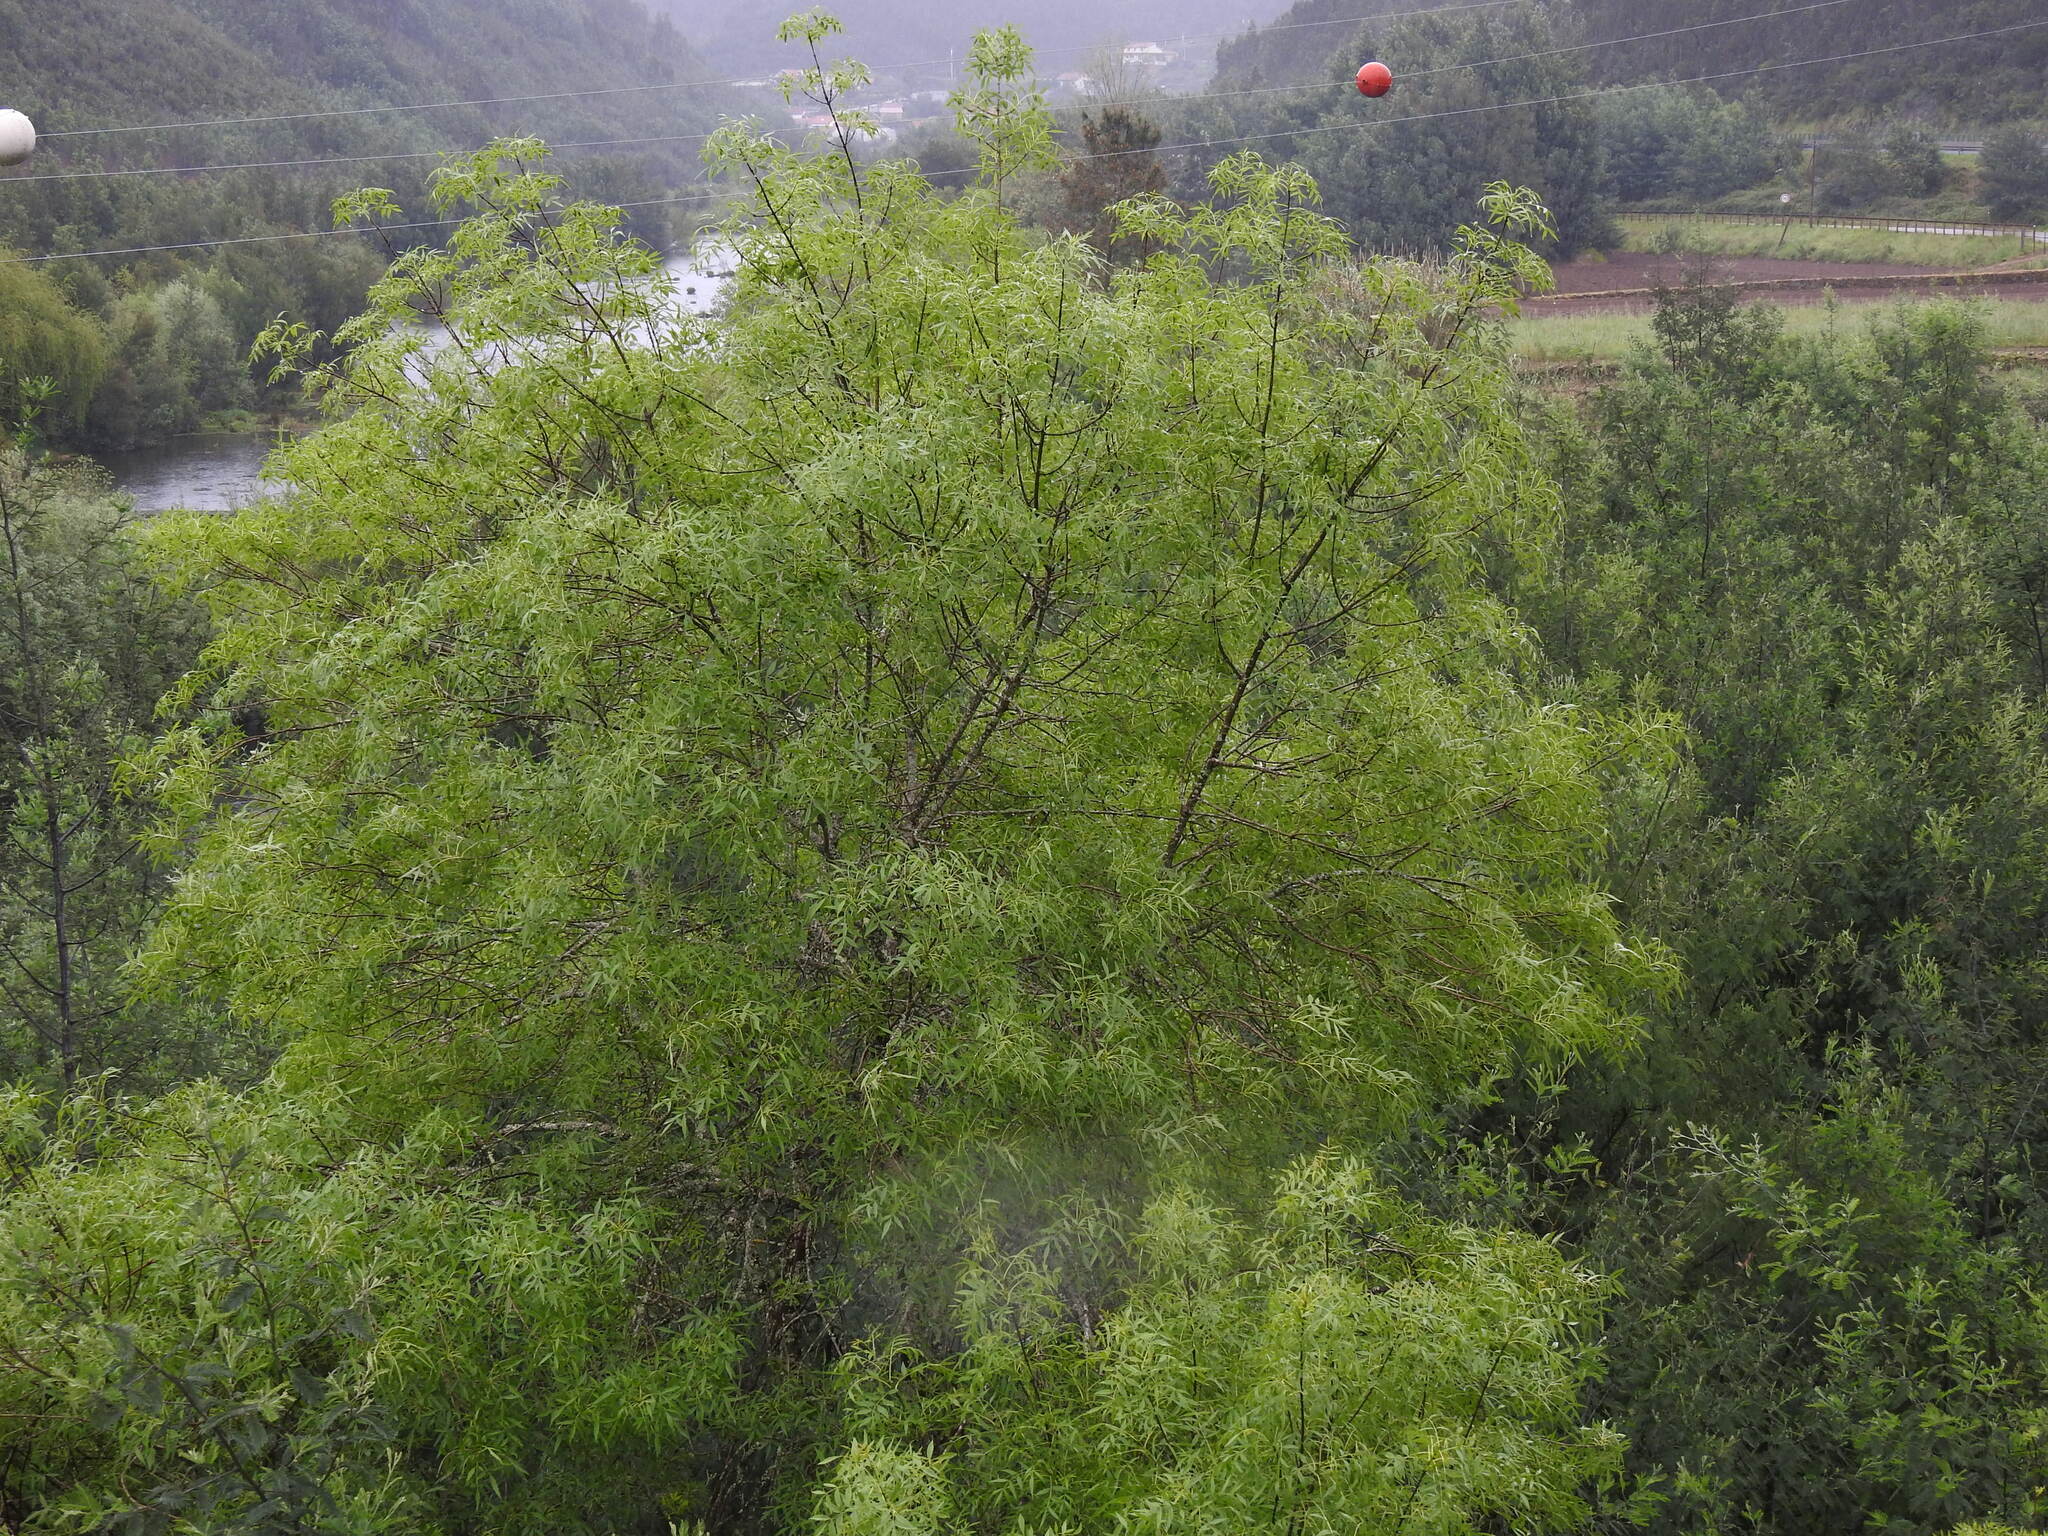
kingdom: Plantae
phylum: Tracheophyta
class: Magnoliopsida
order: Lamiales
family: Oleaceae
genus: Fraxinus
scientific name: Fraxinus angustifolia
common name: Narrow-leafed ash
